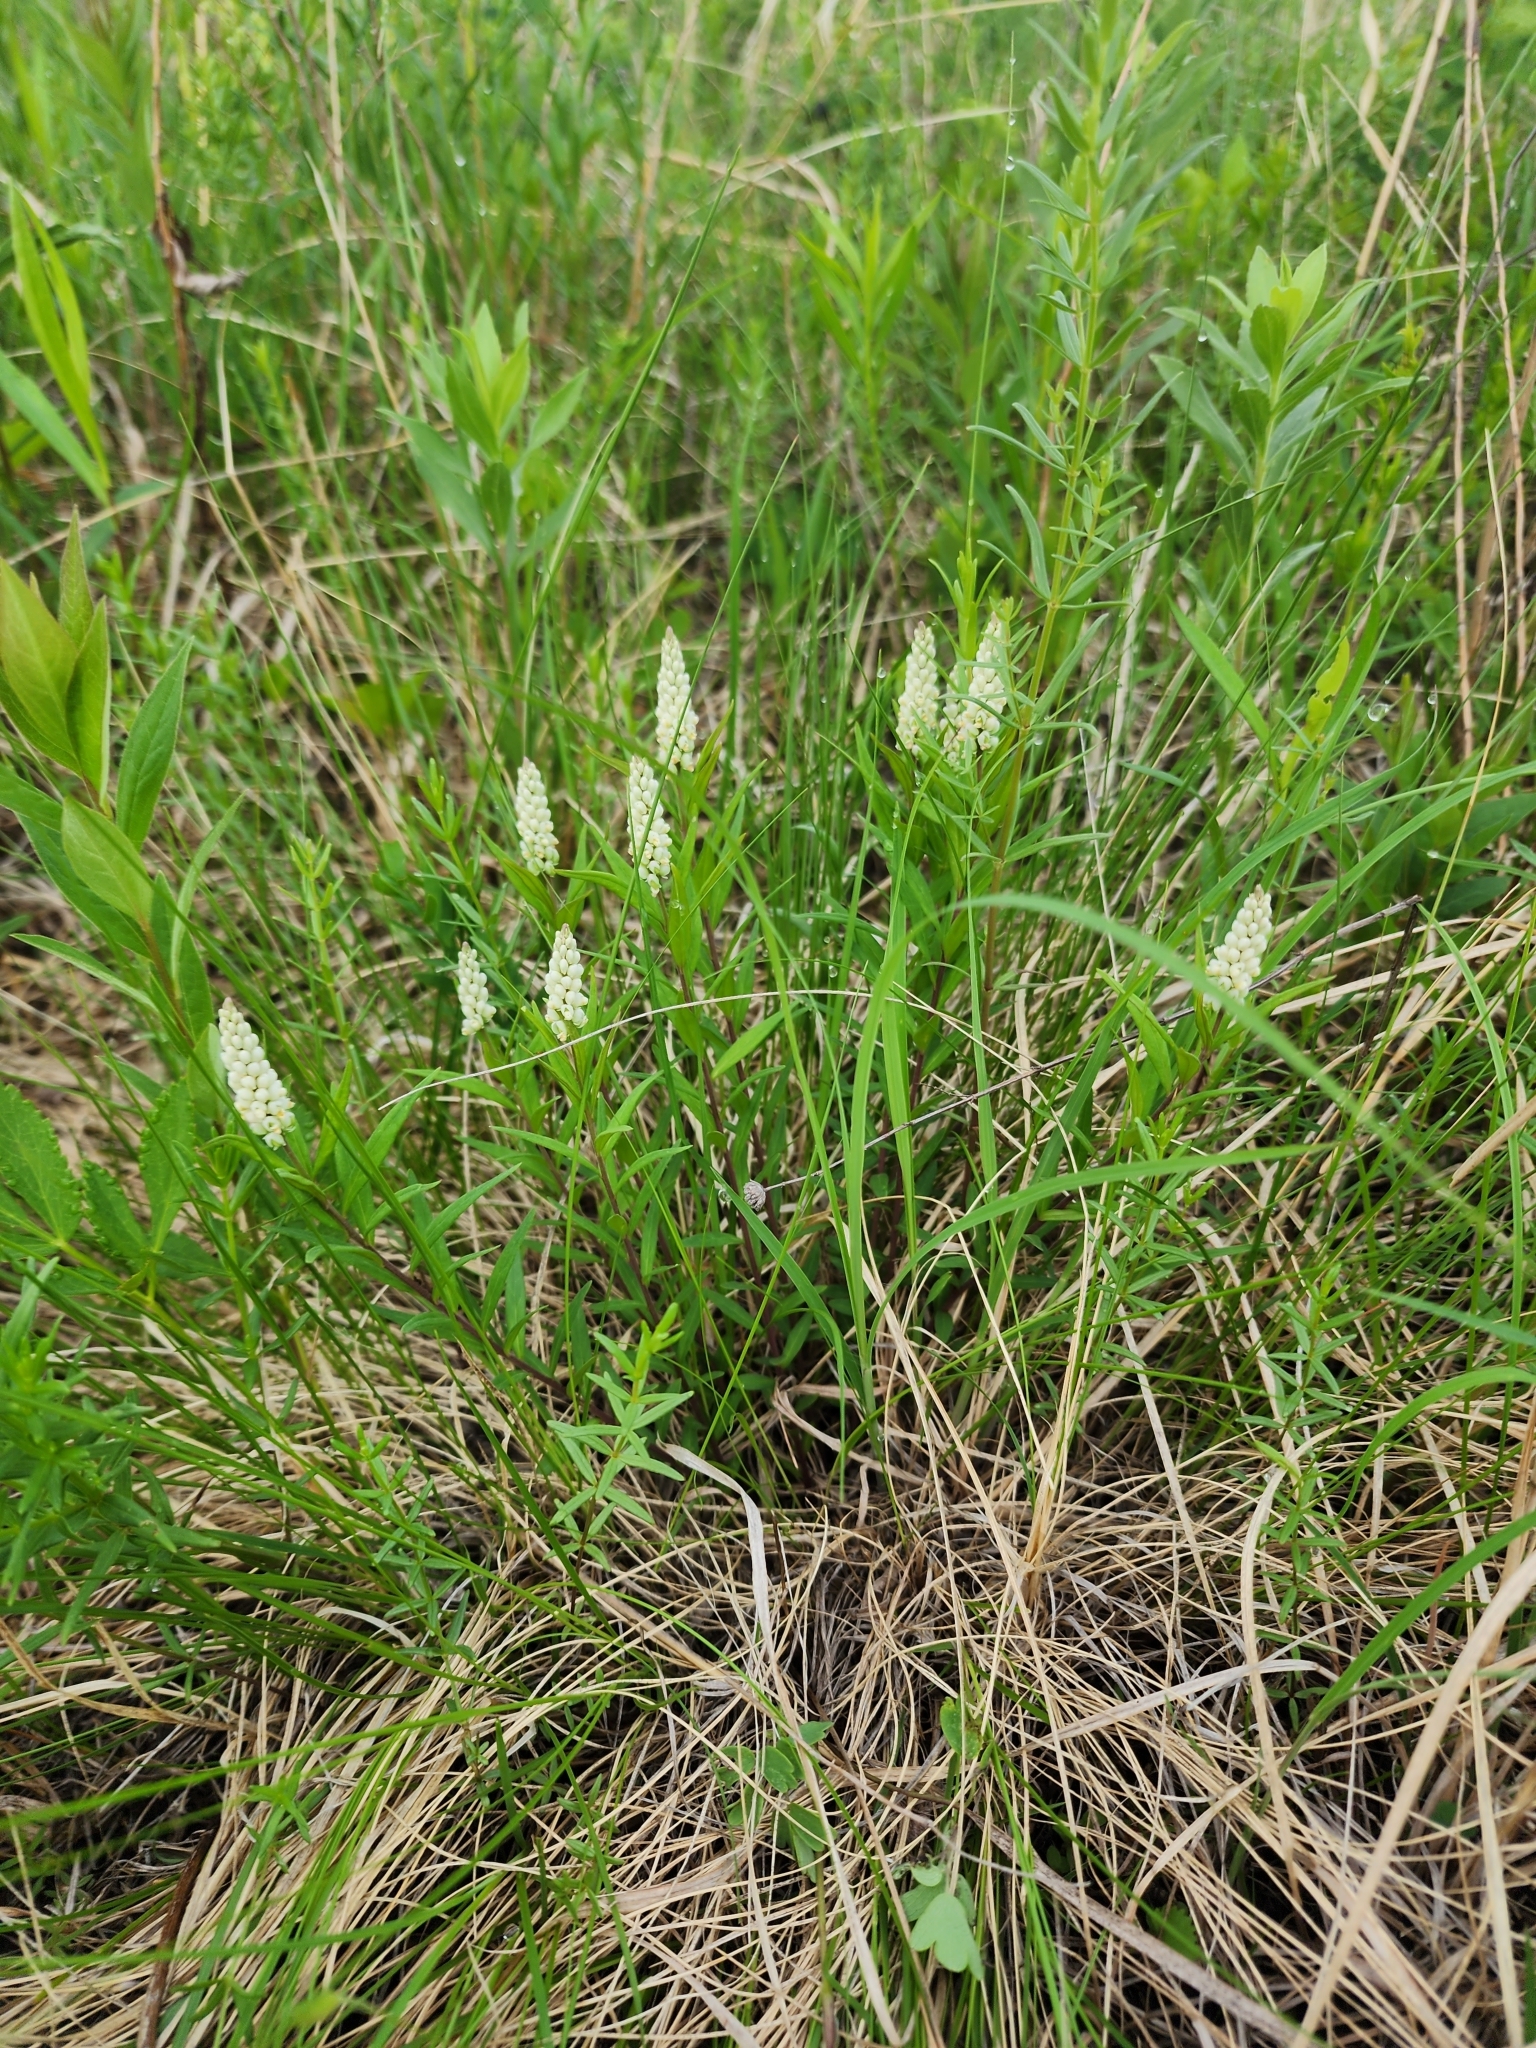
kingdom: Plantae
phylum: Tracheophyta
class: Magnoliopsida
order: Fabales
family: Polygalaceae
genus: Polygala
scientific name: Polygala senega
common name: Seneca snakeroot
